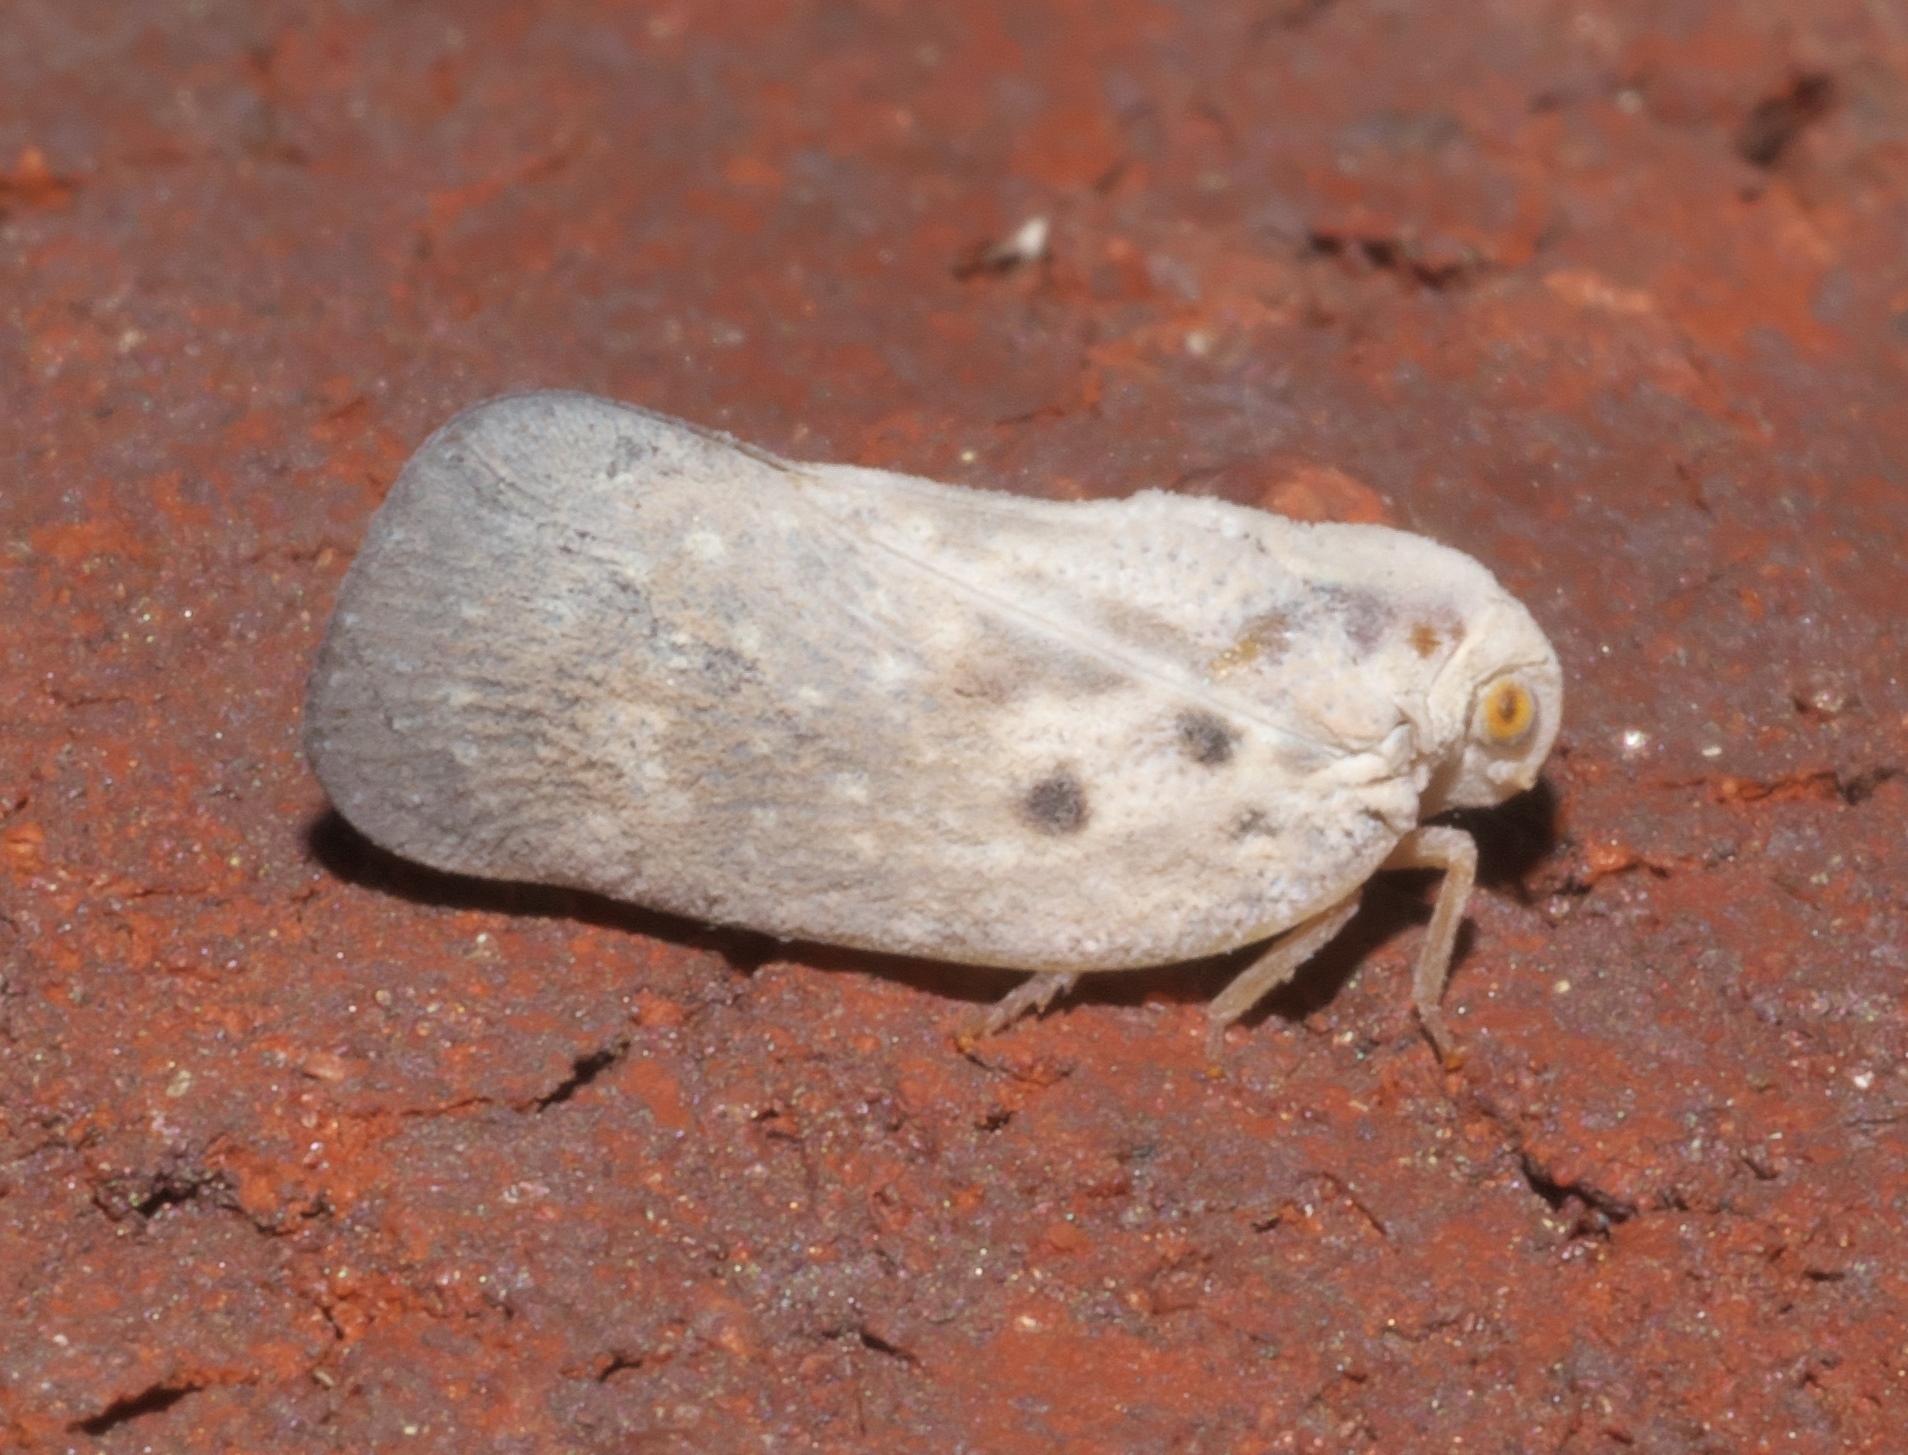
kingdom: Animalia
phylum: Arthropoda
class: Insecta
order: Hemiptera
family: Flatidae
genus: Metcalfa
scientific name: Metcalfa pruinosa
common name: Citrus flatid planthopper
